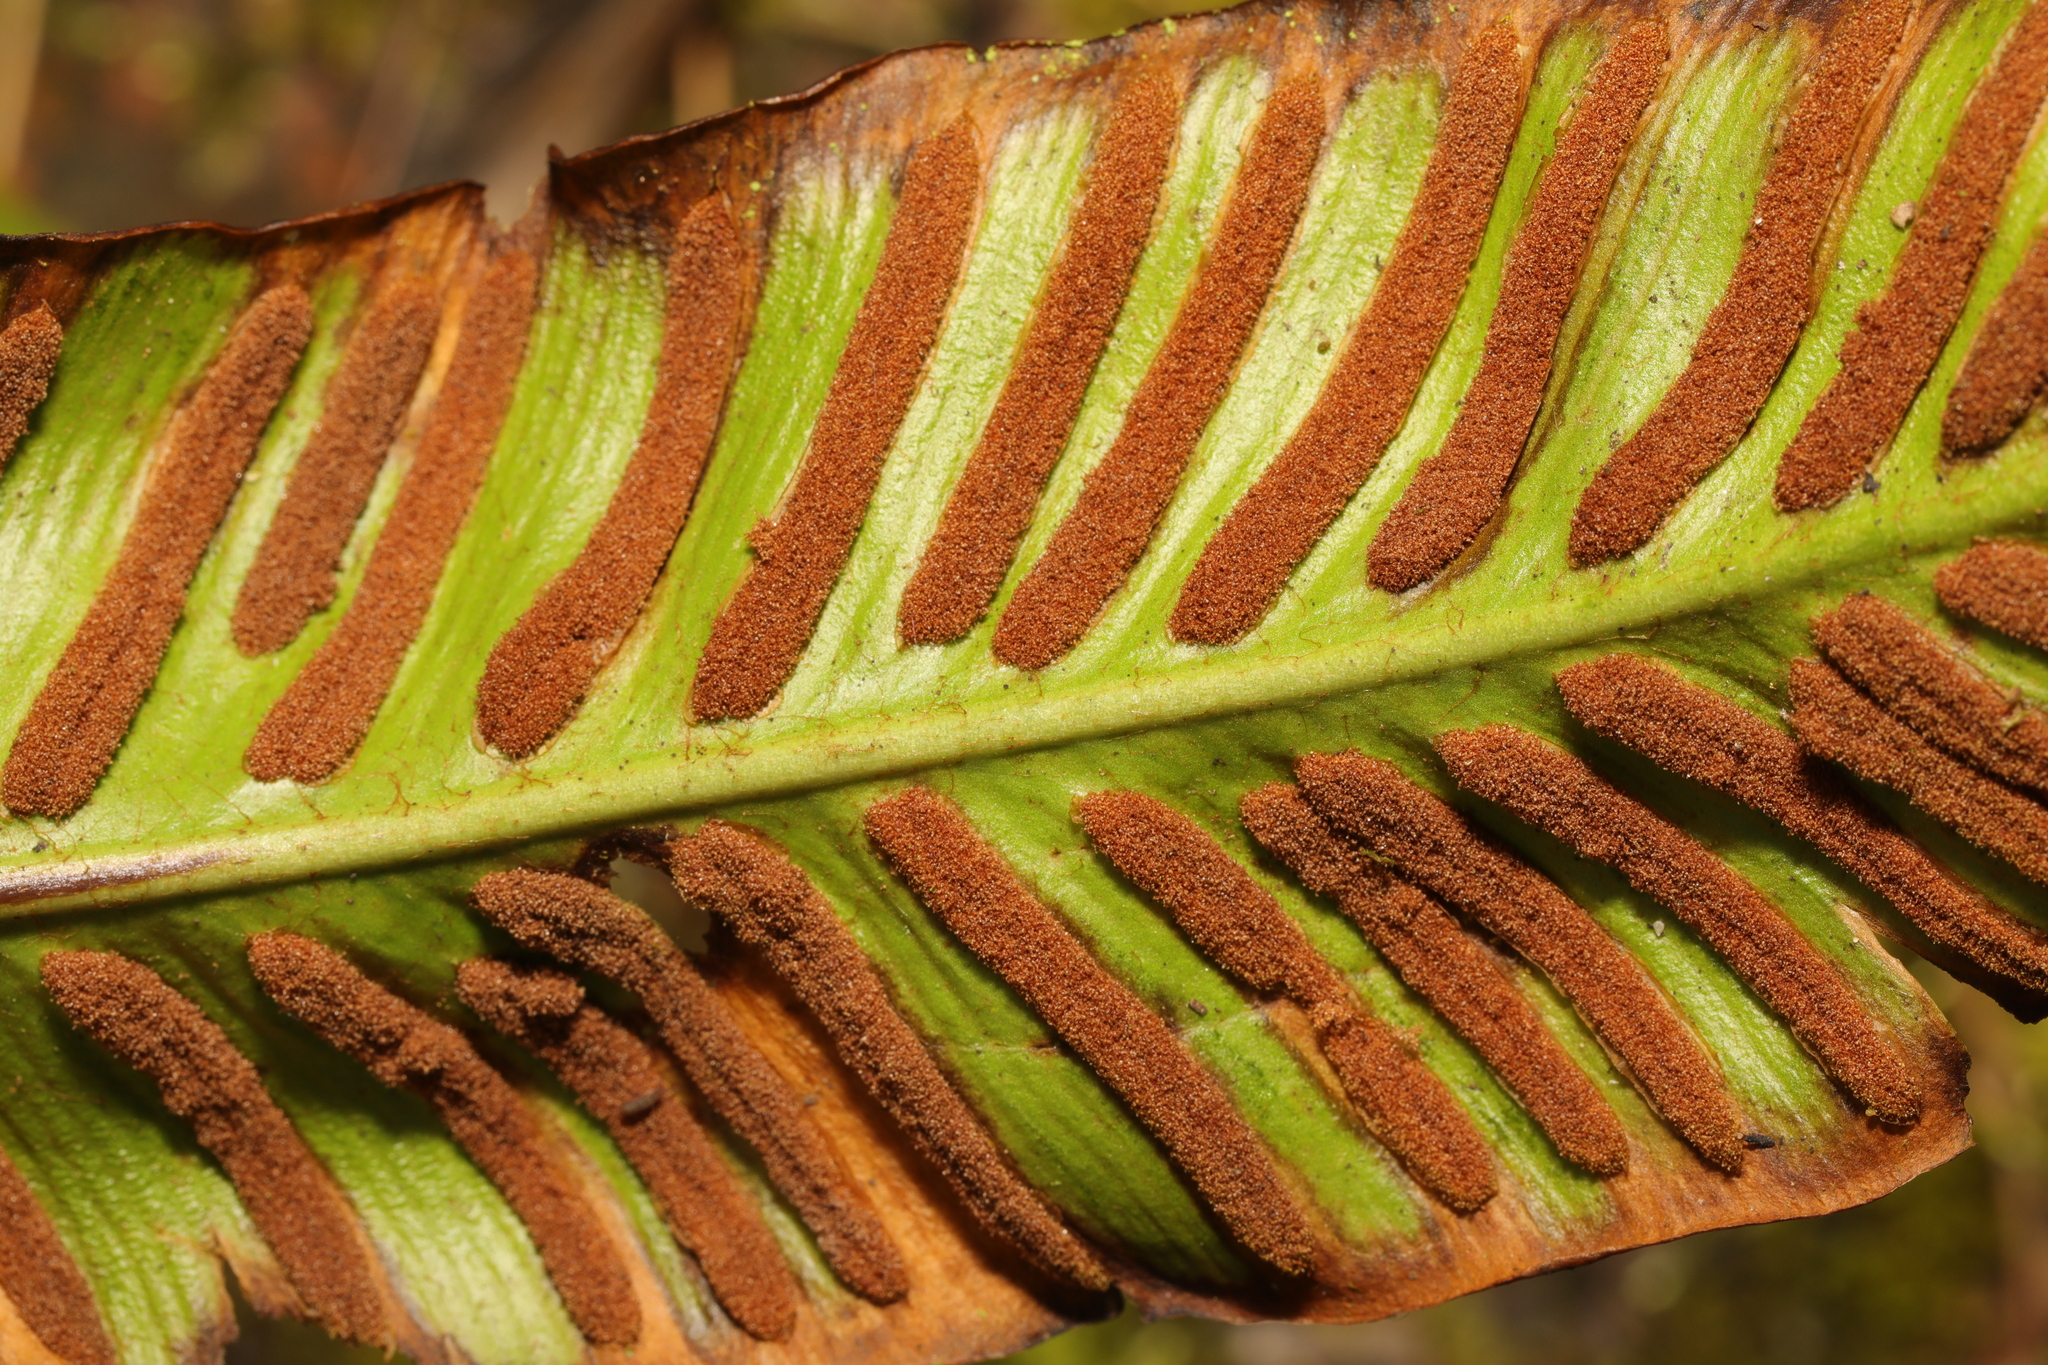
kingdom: Plantae
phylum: Tracheophyta
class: Polypodiopsida
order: Polypodiales
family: Aspleniaceae
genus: Asplenium
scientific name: Asplenium scolopendrium
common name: Hart's-tongue fern
